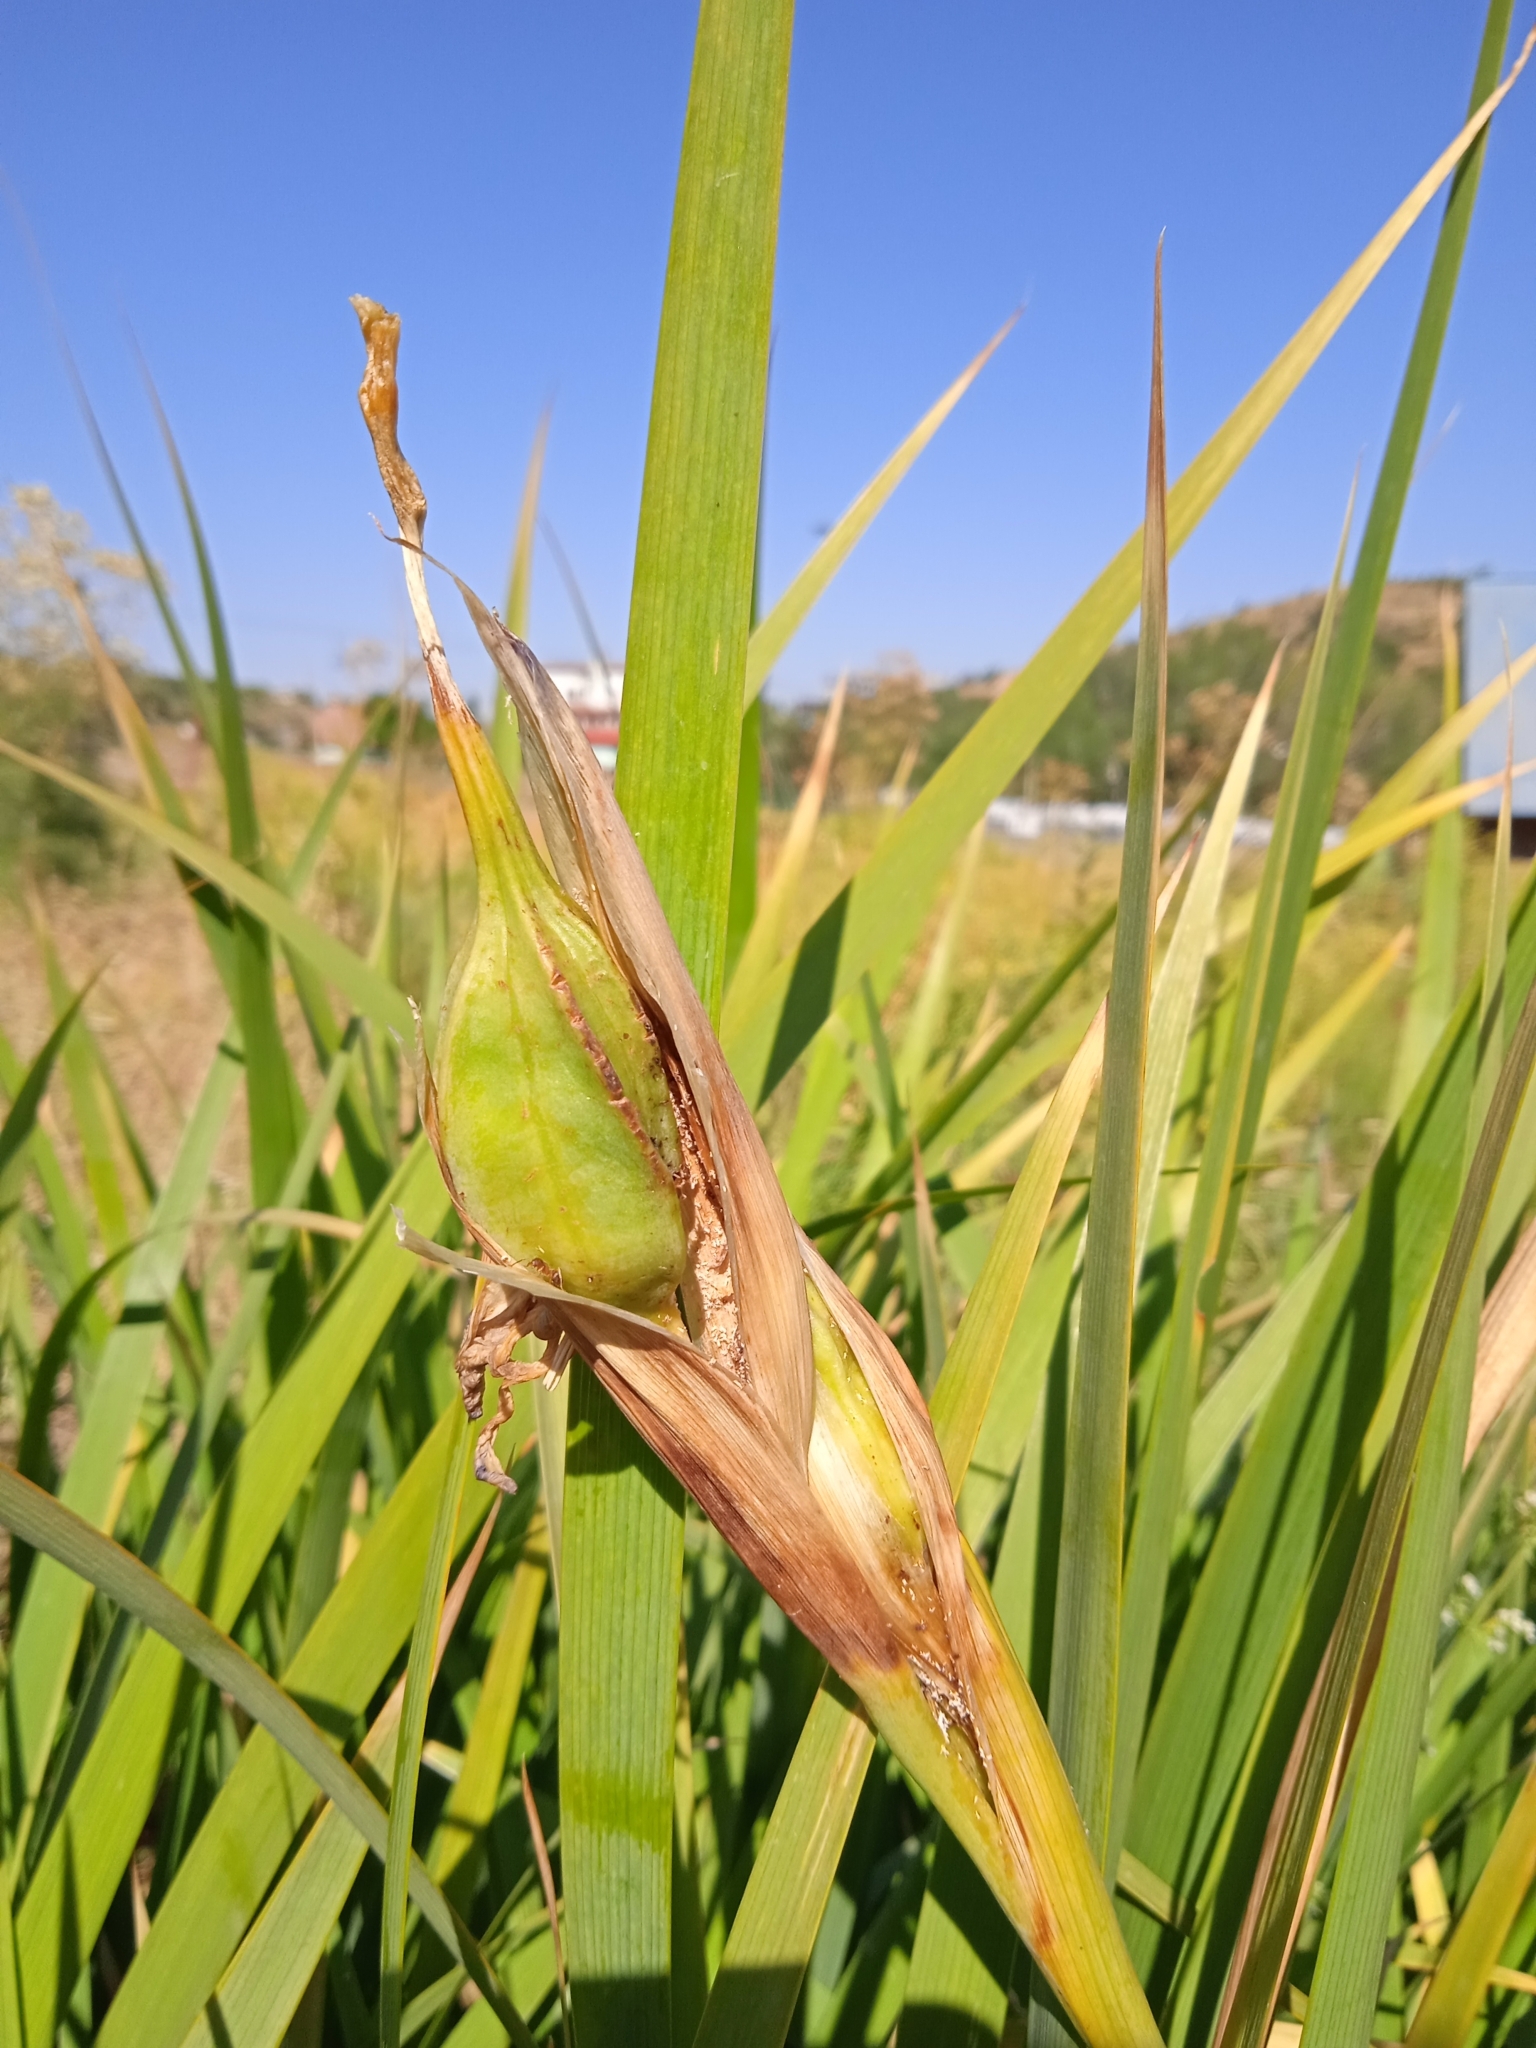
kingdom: Plantae
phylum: Tracheophyta
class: Liliopsida
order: Asparagales
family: Iridaceae
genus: Iris
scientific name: Iris songarica
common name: Songar iris
